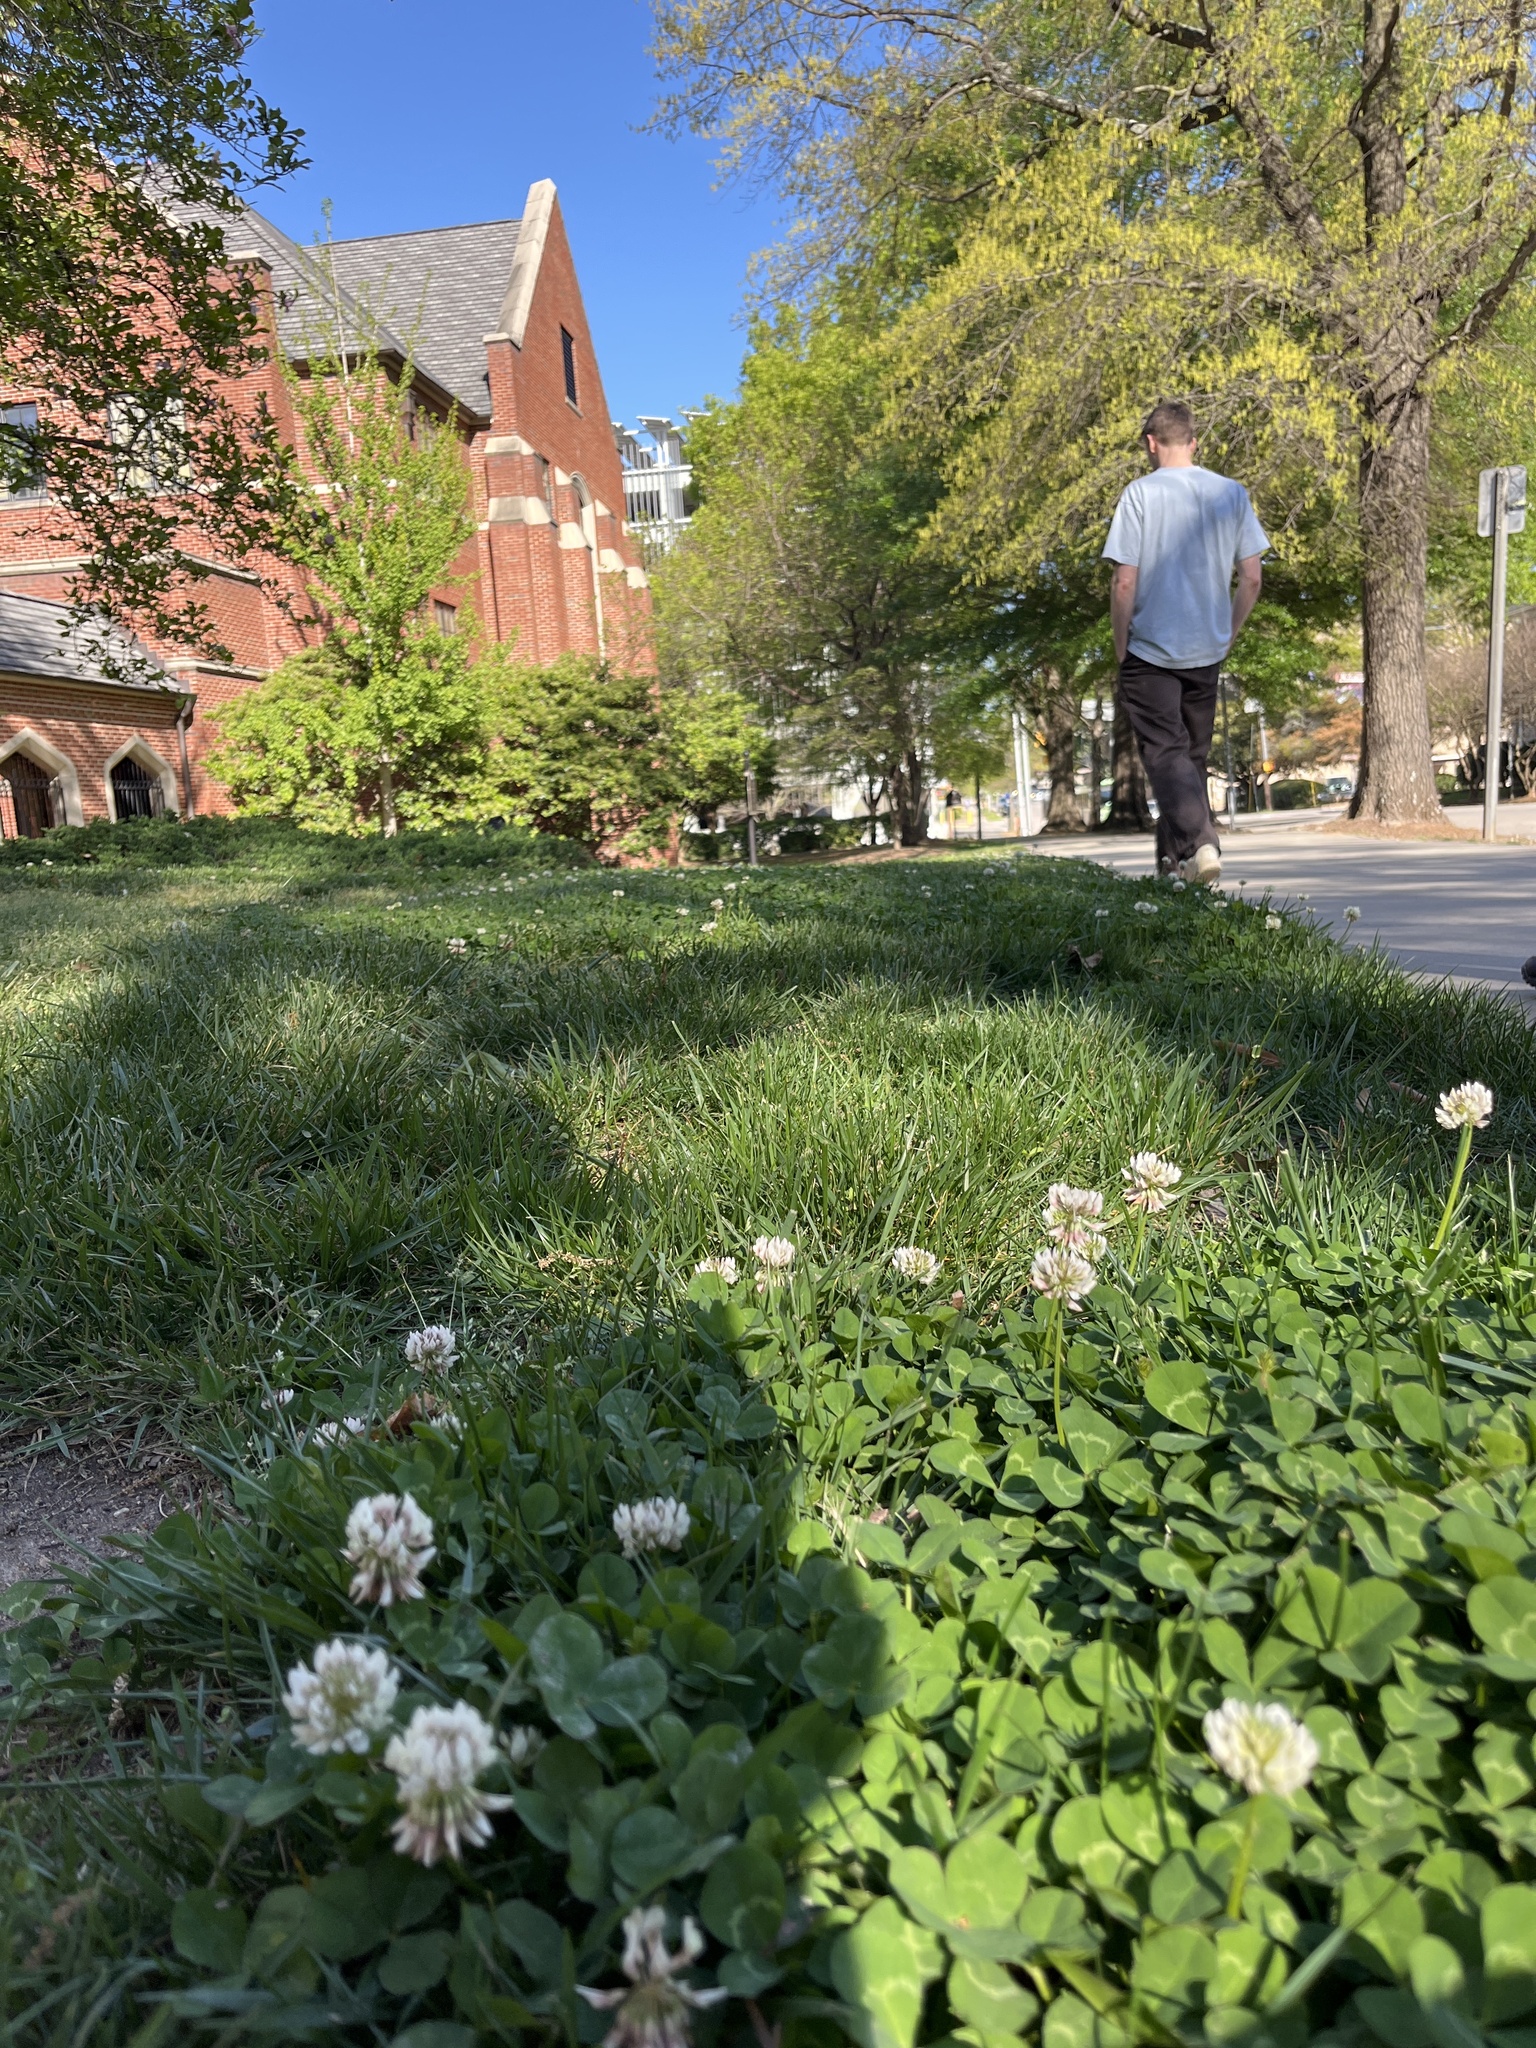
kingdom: Plantae
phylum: Tracheophyta
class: Magnoliopsida
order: Fabales
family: Fabaceae
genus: Trifolium
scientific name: Trifolium repens
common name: White clover
